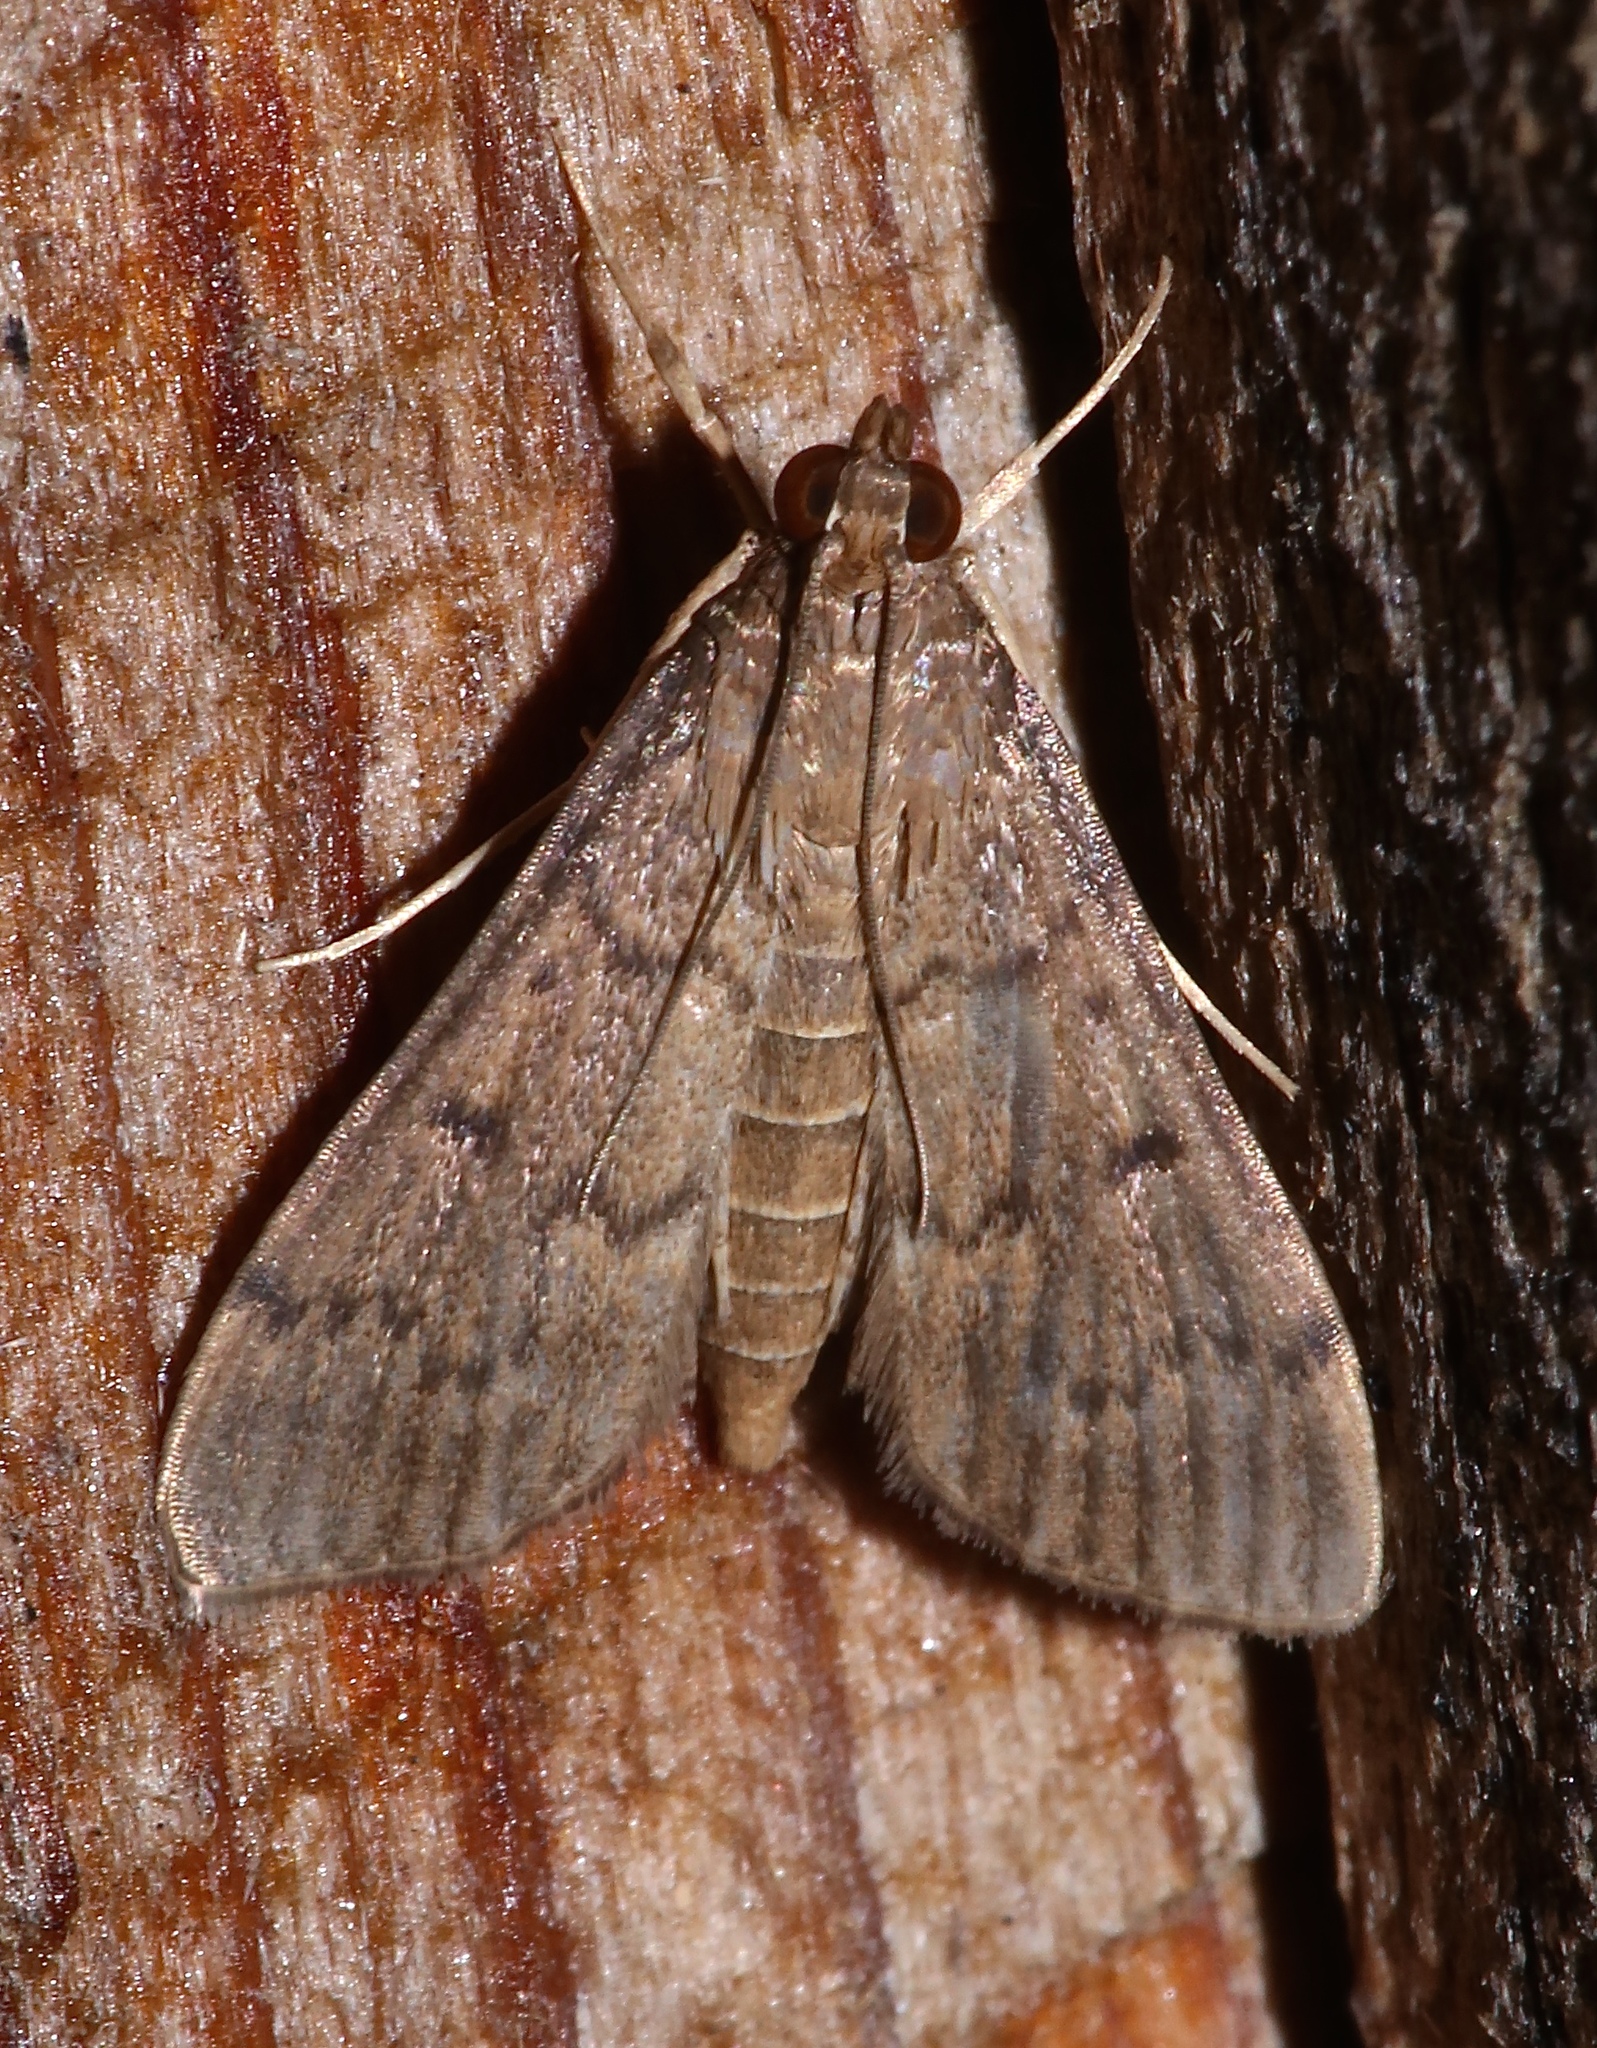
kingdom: Animalia
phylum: Arthropoda
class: Insecta
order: Lepidoptera
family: Crambidae
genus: Herpetogramma
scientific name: Herpetogramma phaeopteralis
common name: Dusky herpetogramma moth
